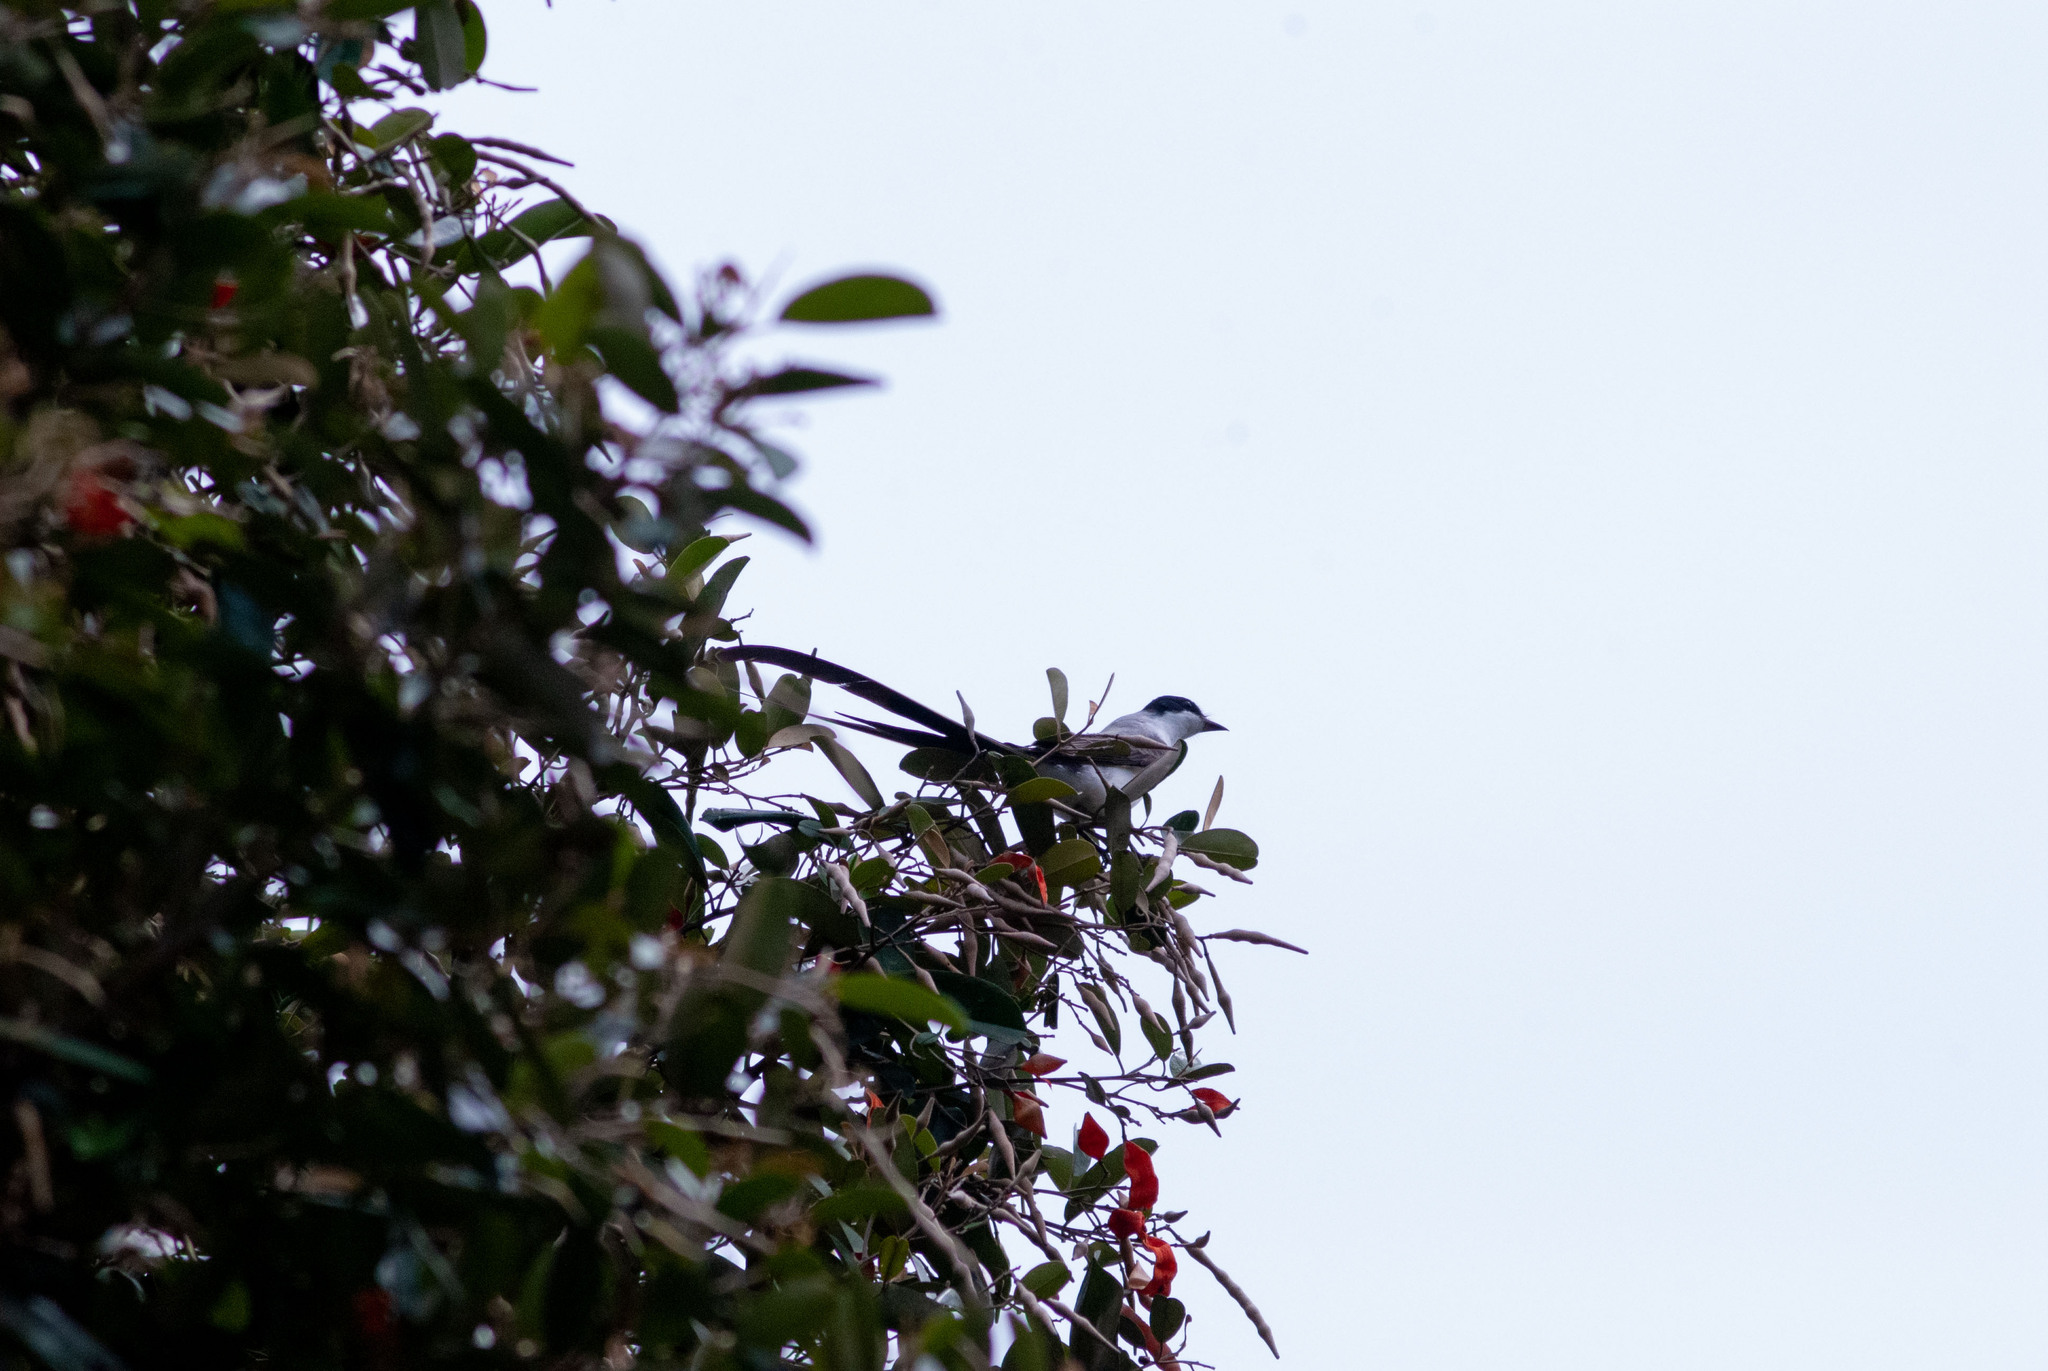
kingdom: Animalia
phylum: Chordata
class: Aves
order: Passeriformes
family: Tyrannidae
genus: Tyrannus
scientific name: Tyrannus savana
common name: Fork-tailed flycatcher
